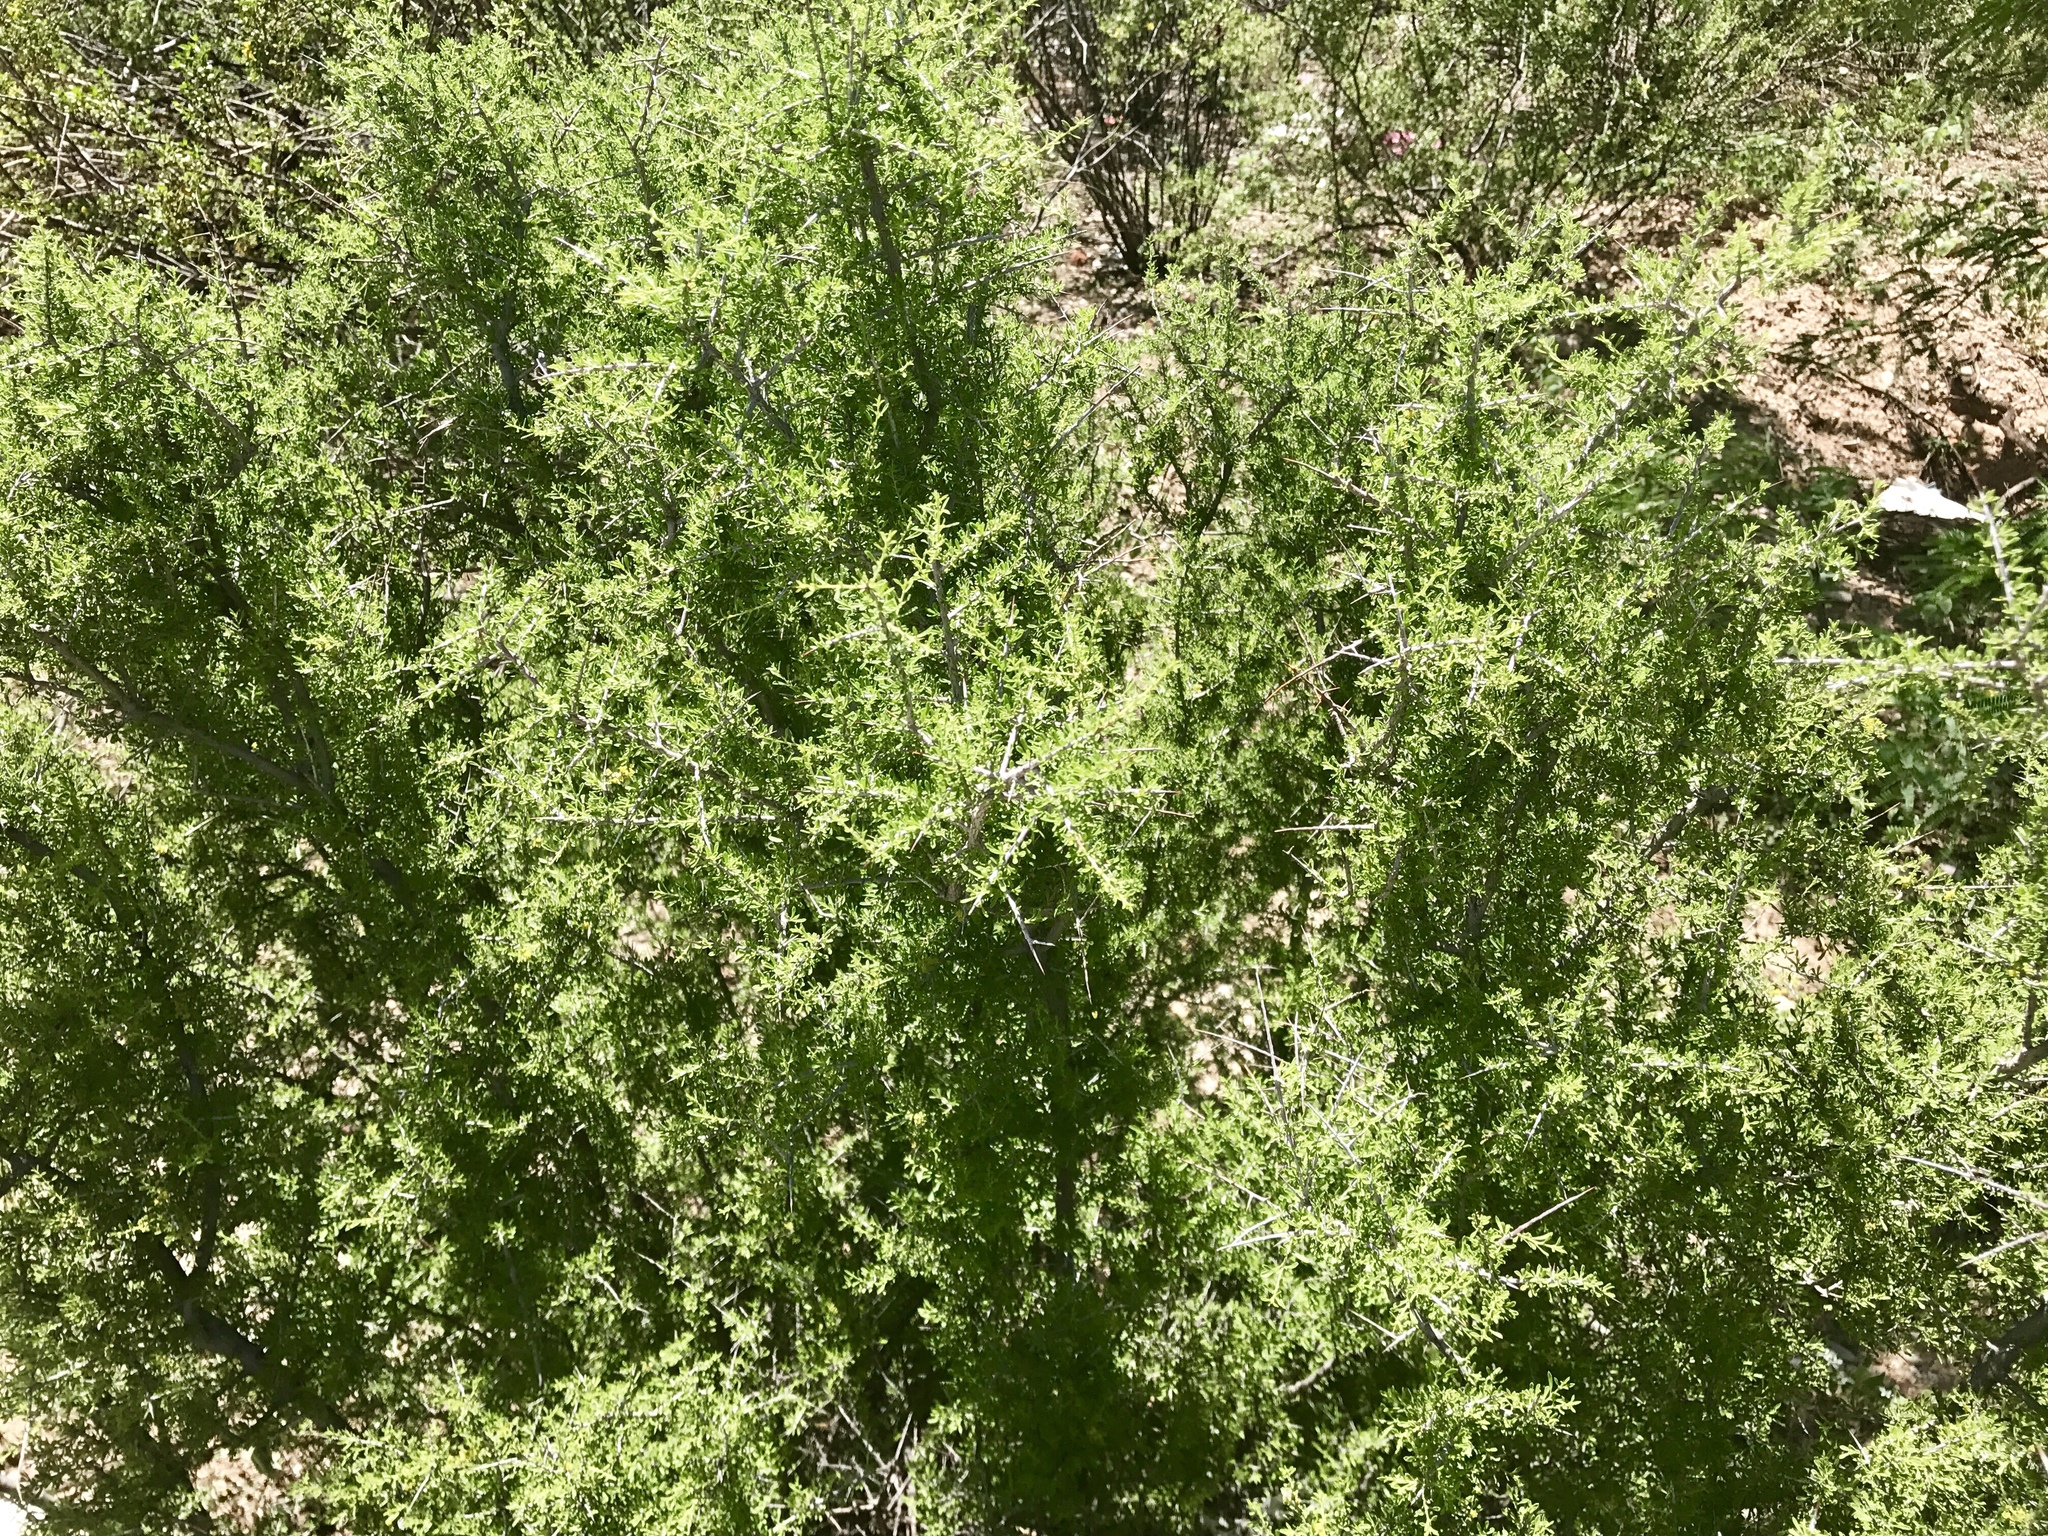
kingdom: Plantae
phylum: Tracheophyta
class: Magnoliopsida
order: Solanales
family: Solanaceae
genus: Lycium
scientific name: Lycium berlandieri
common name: Berlandier wolfberry
